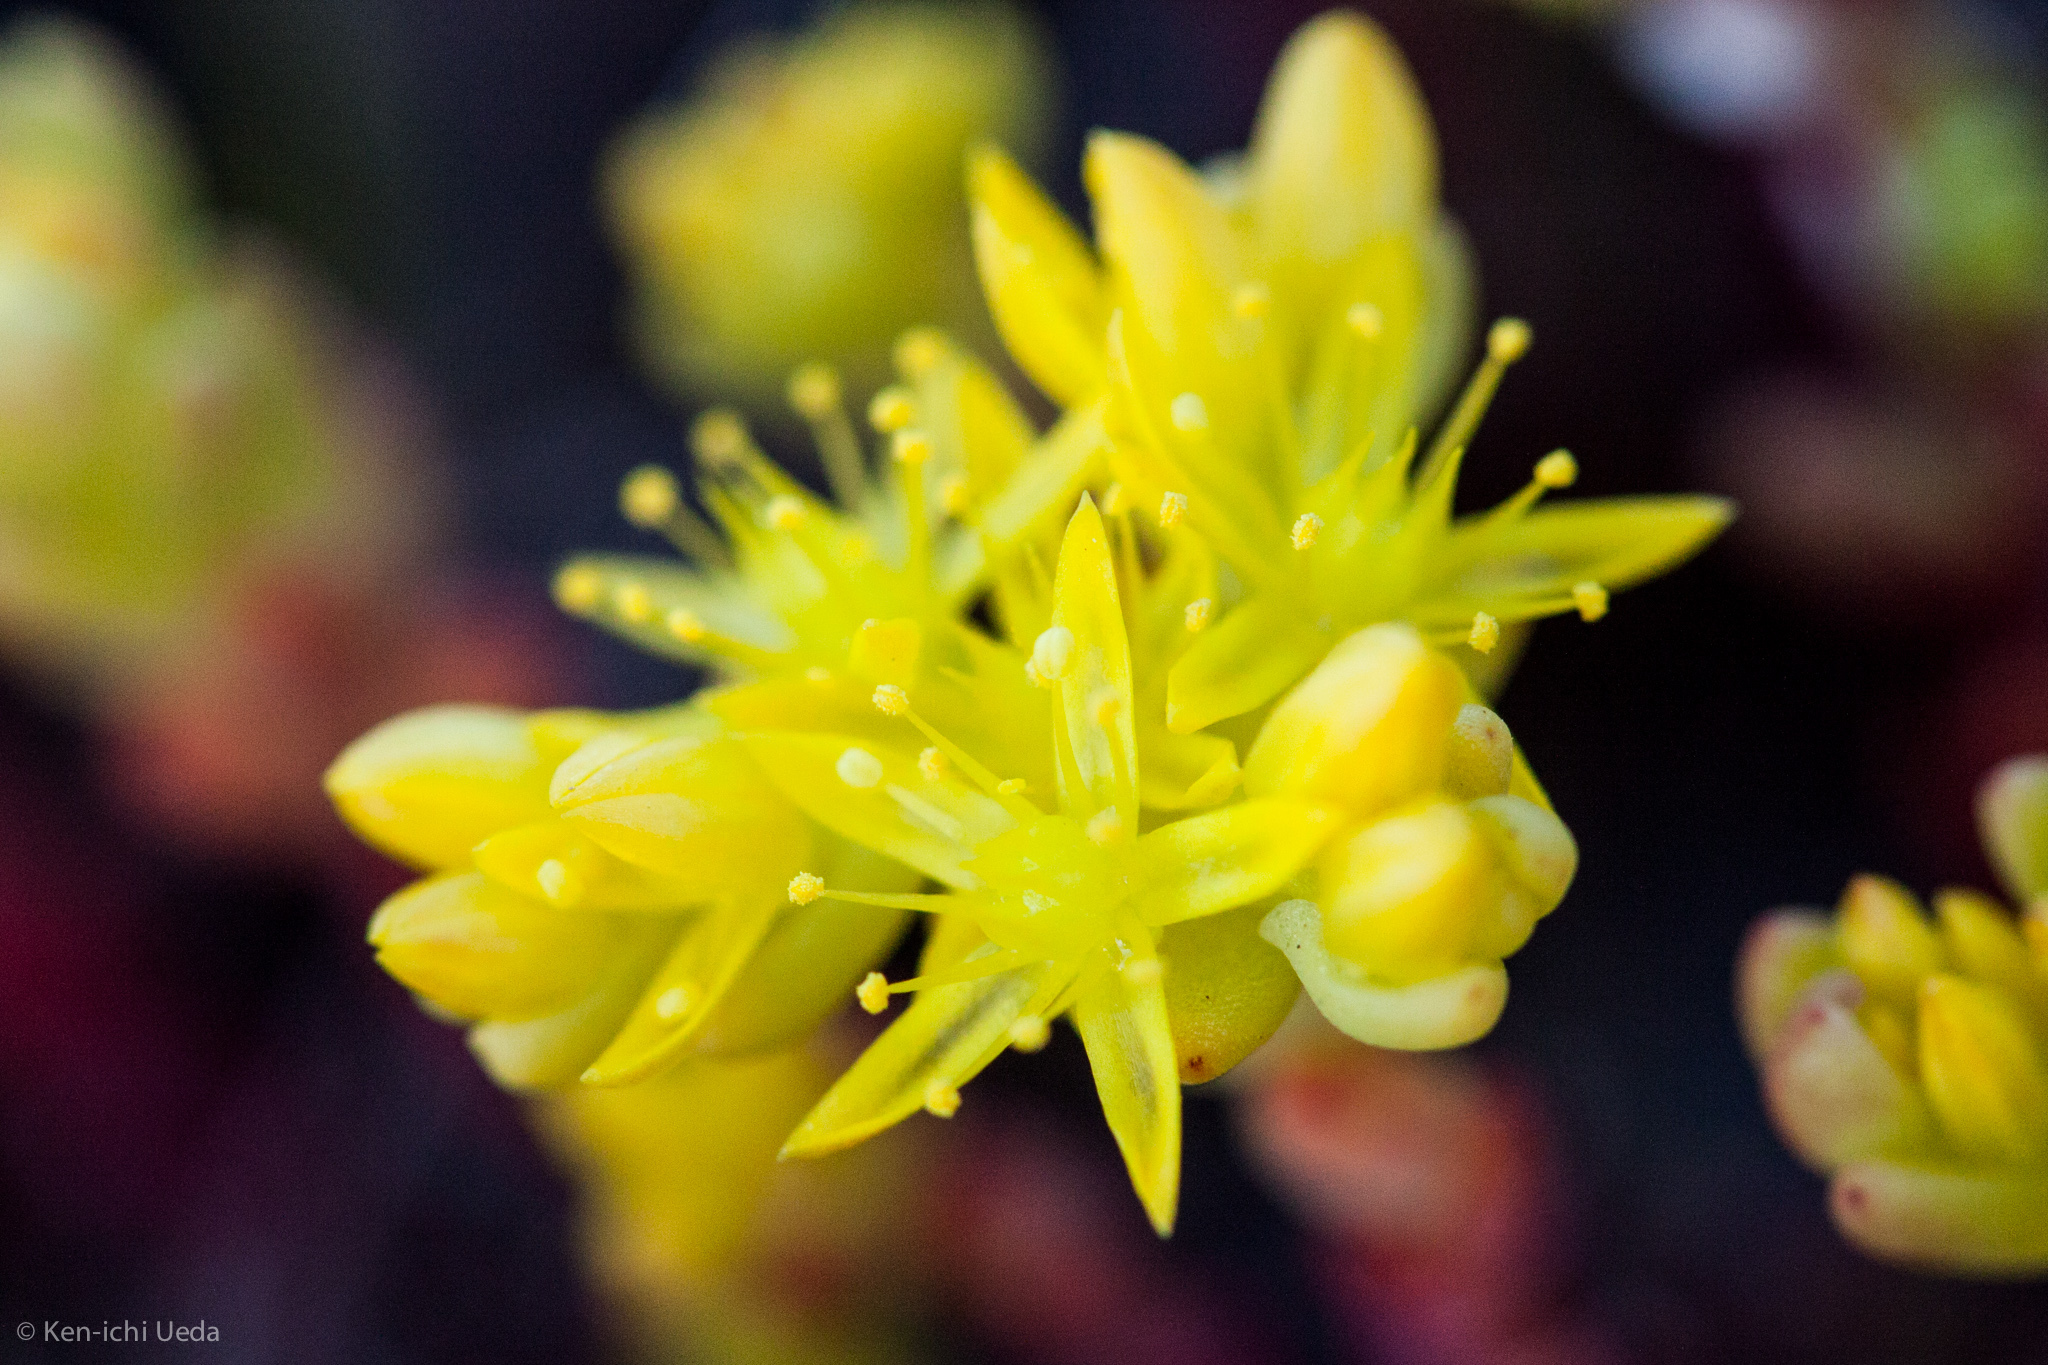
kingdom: Plantae
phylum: Tracheophyta
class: Magnoliopsida
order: Saxifragales
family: Crassulaceae
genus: Sedella
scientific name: Sedella pumila
